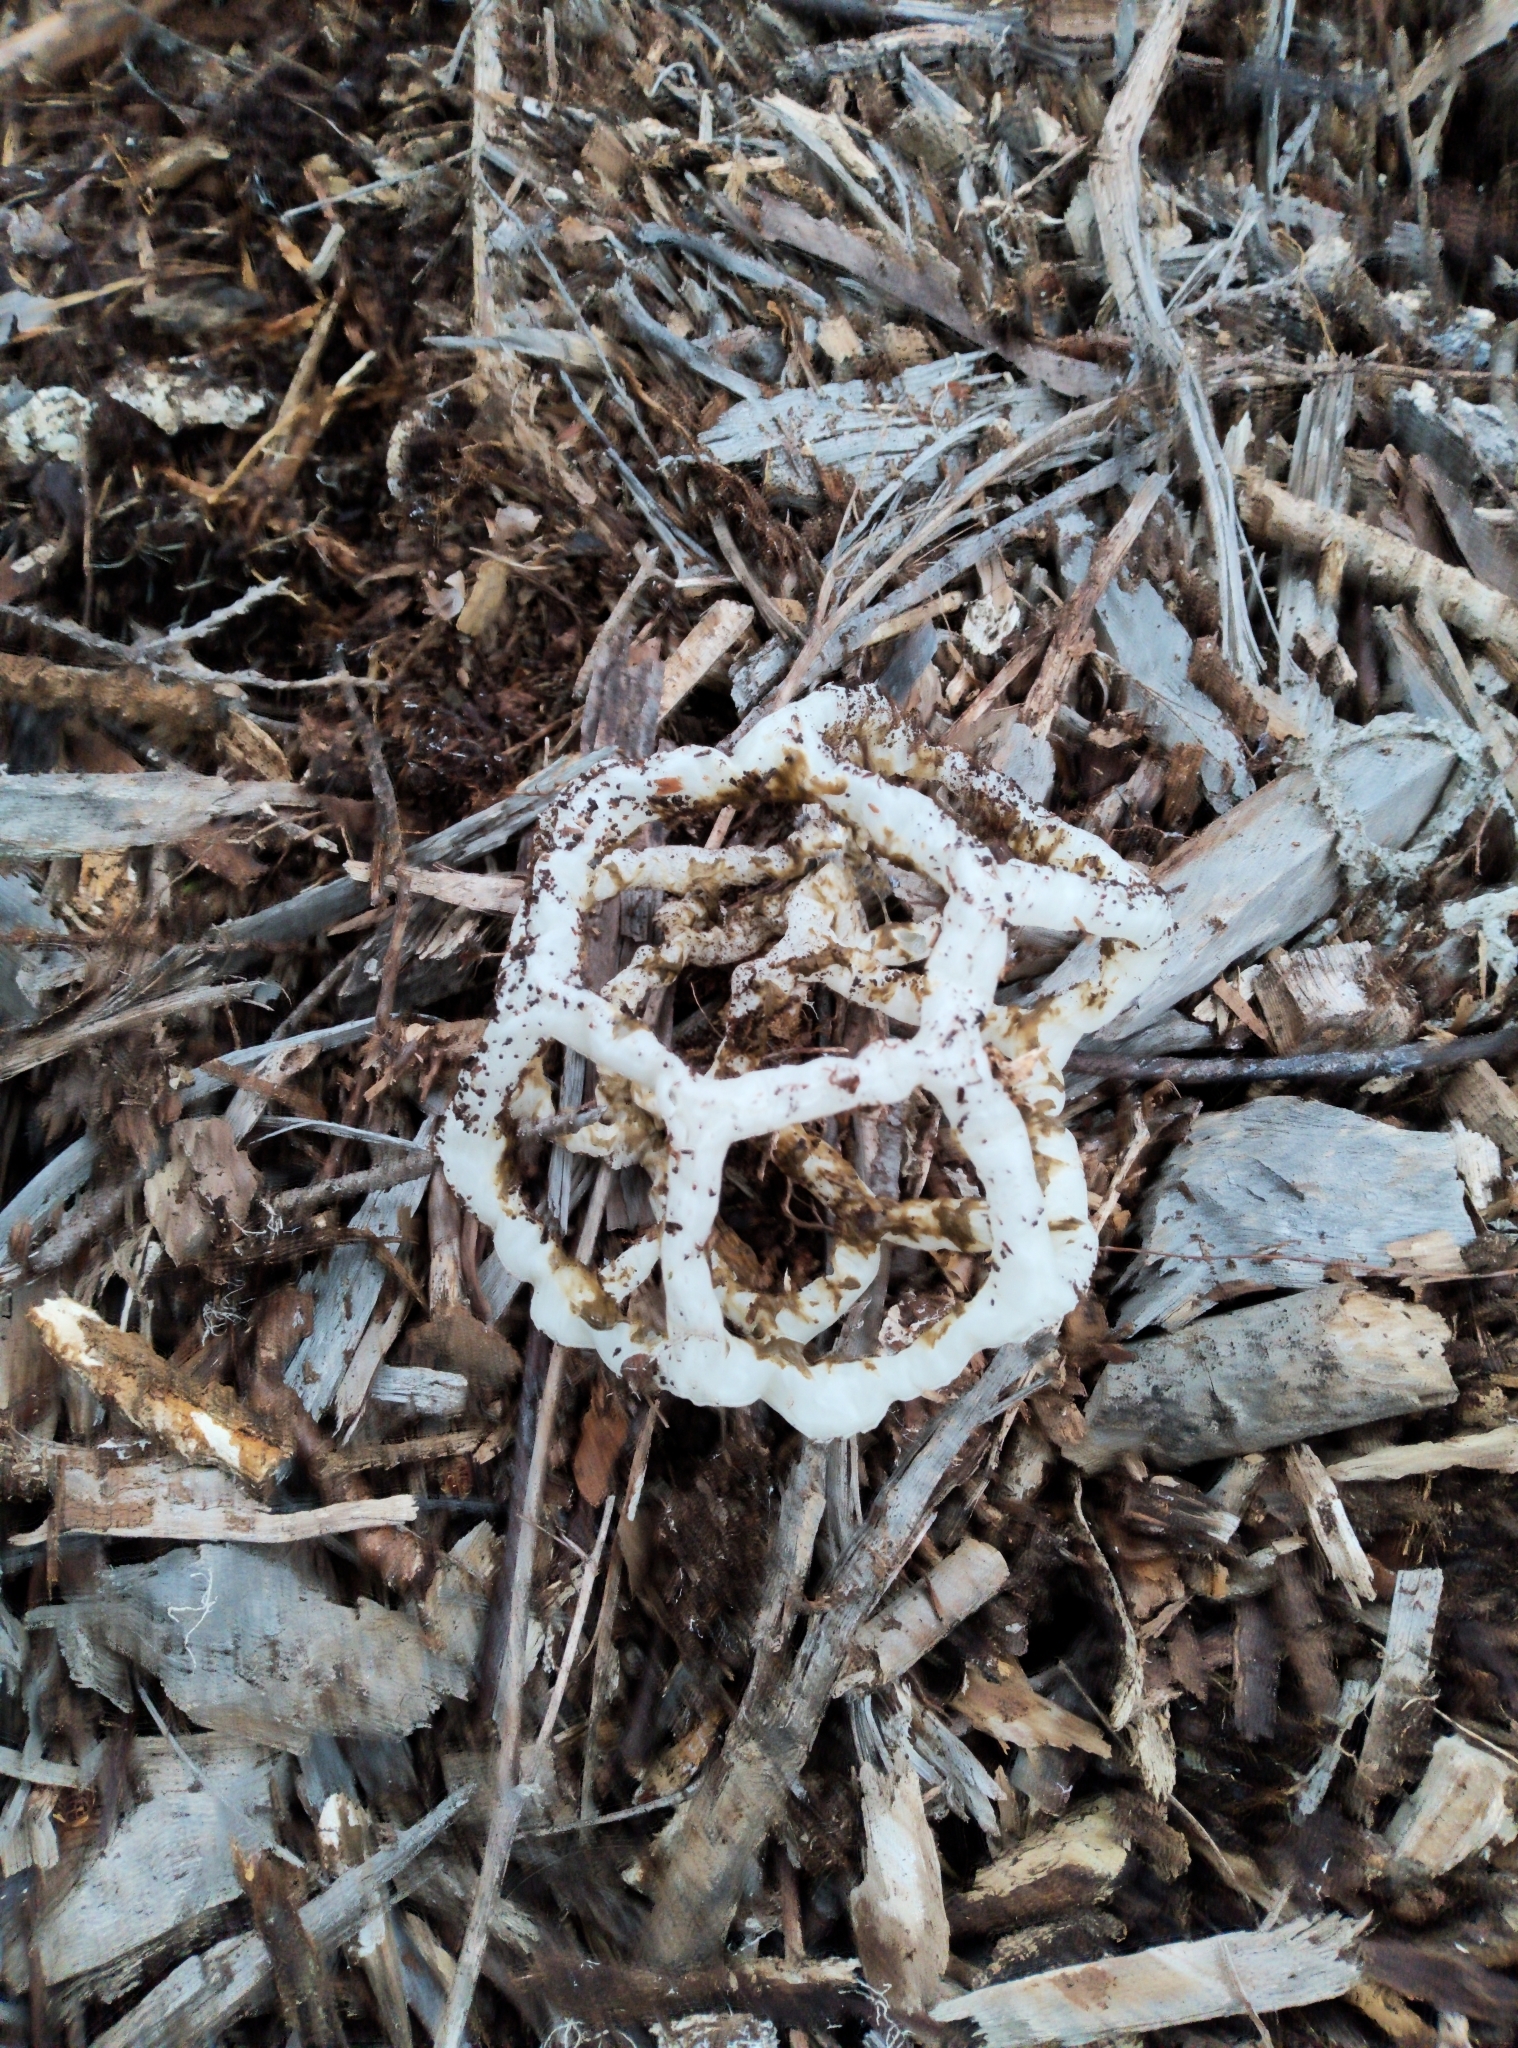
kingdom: Fungi
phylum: Basidiomycota
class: Agaricomycetes
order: Phallales
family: Phallaceae
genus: Ileodictyon
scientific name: Ileodictyon cibarium
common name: Basket fungus
